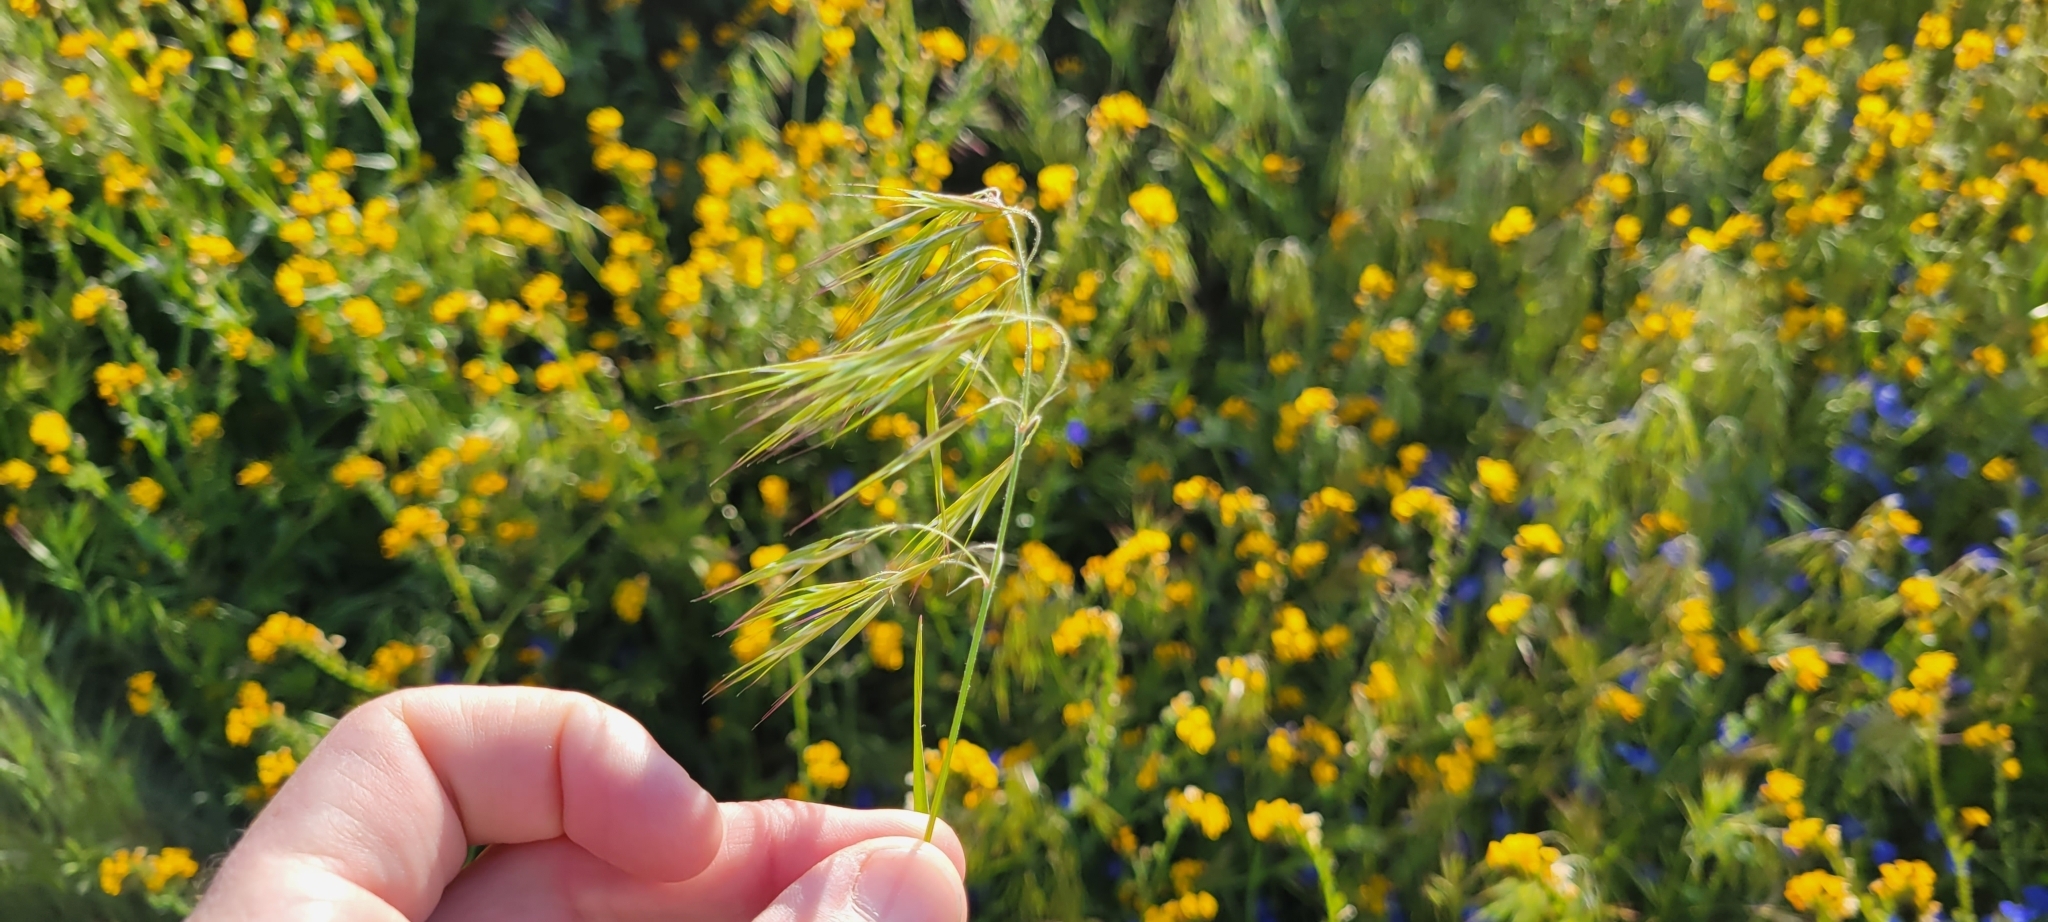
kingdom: Plantae
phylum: Tracheophyta
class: Liliopsida
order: Poales
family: Poaceae
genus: Bromus
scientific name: Bromus tectorum
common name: Cheatgrass
